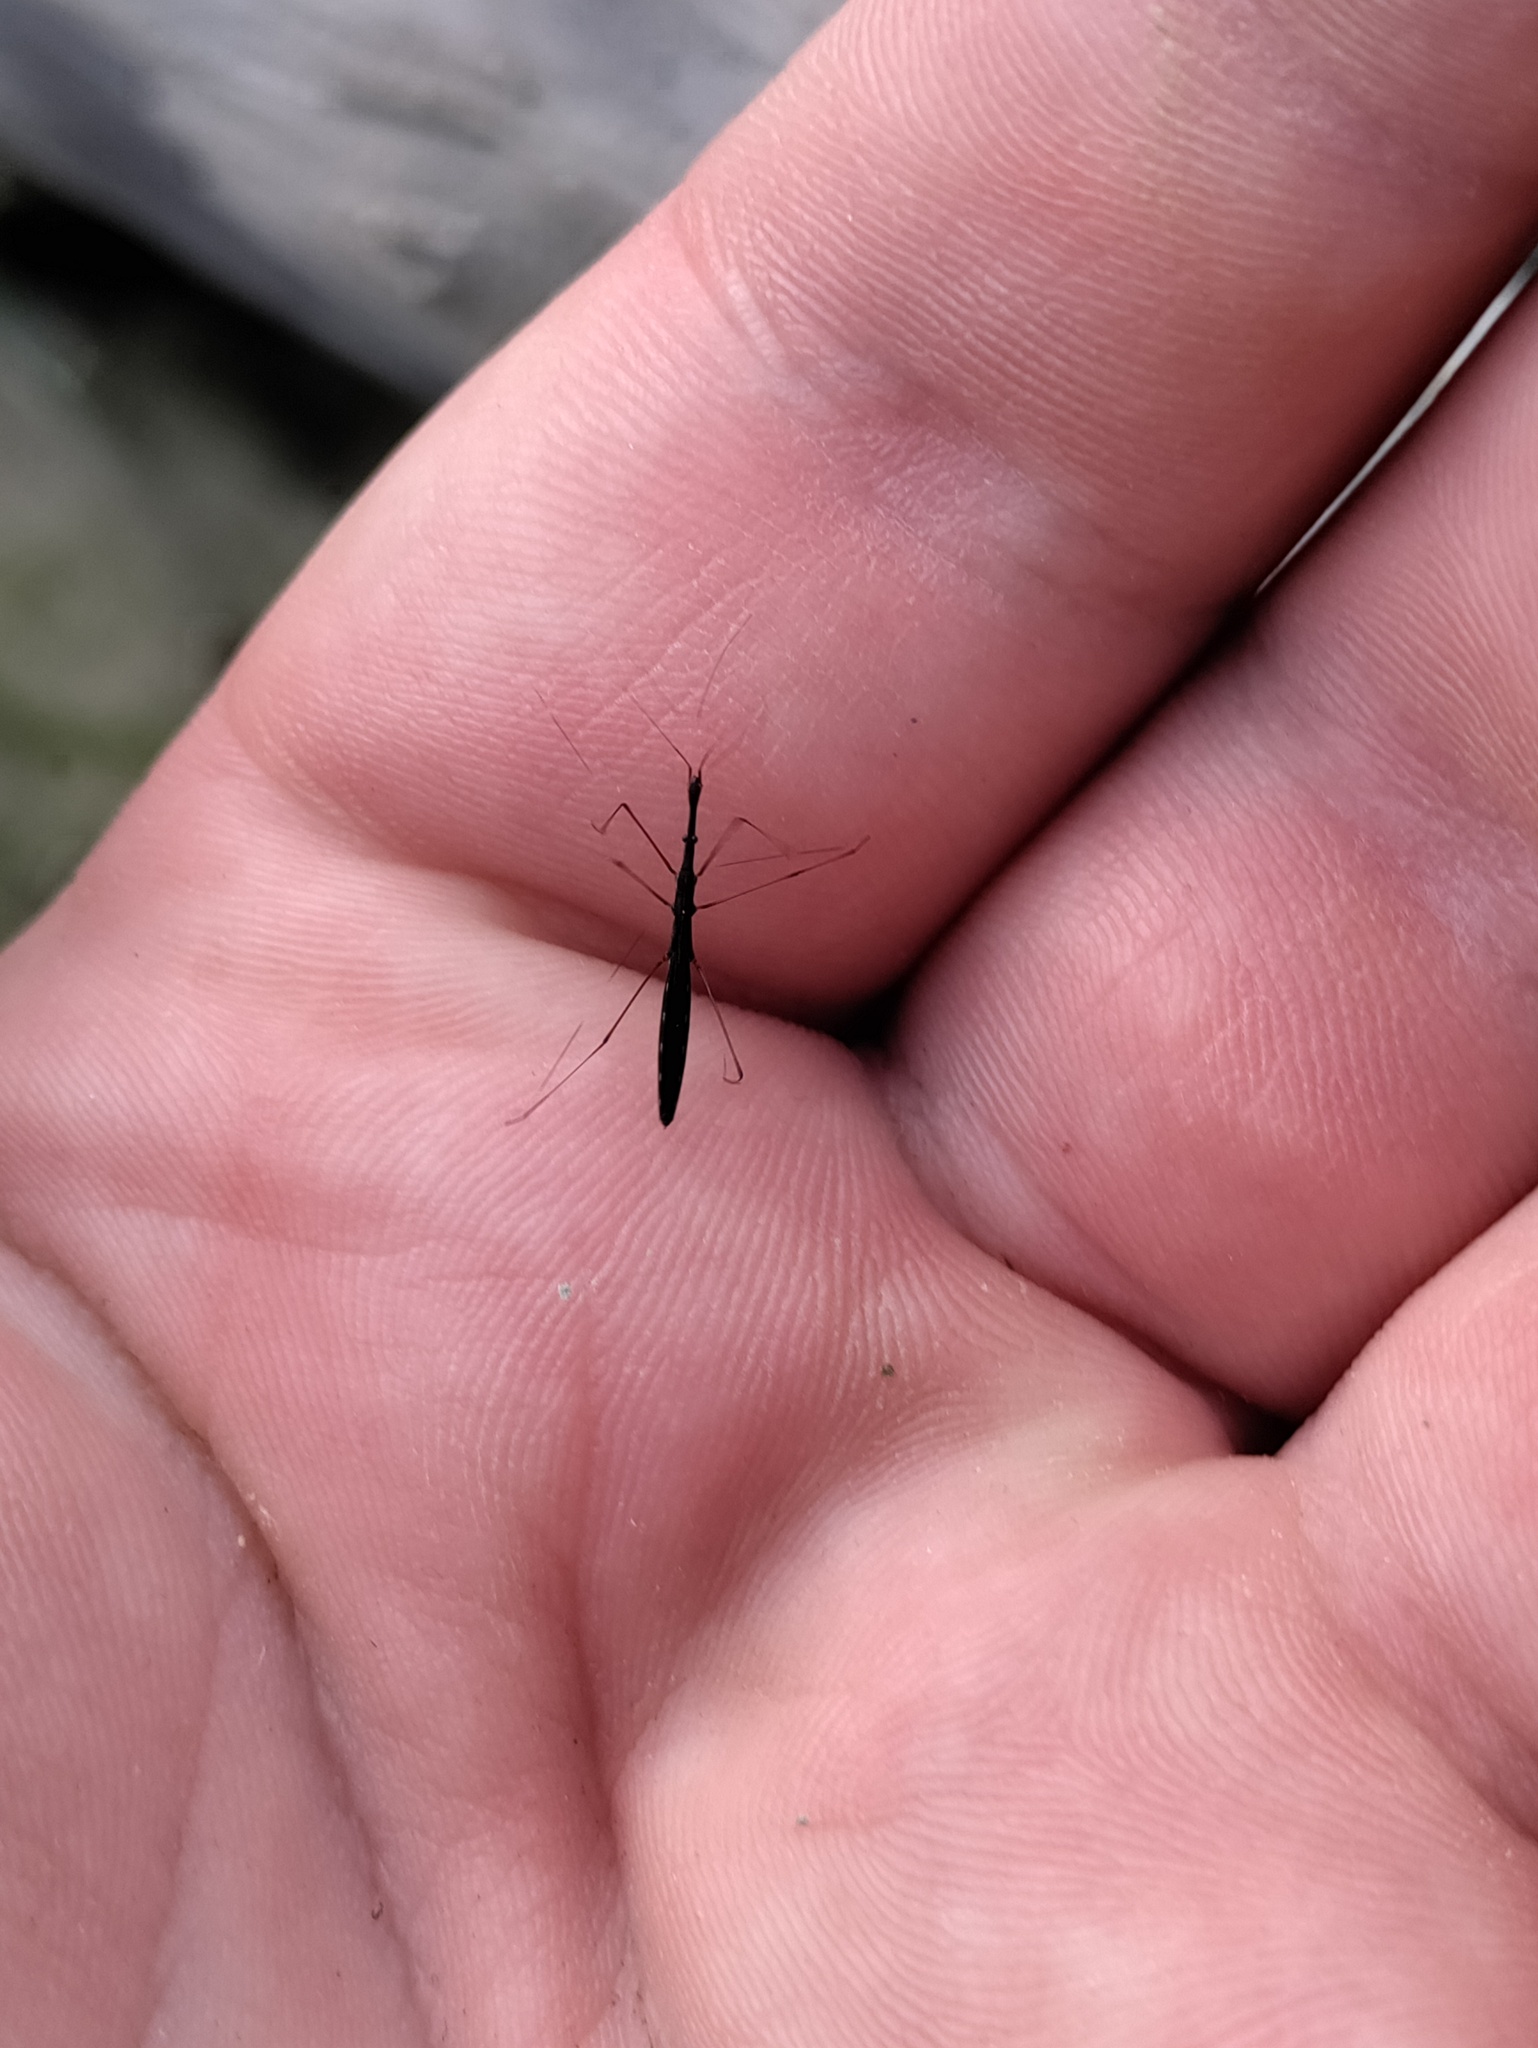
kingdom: Animalia
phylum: Arthropoda
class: Insecta
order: Hemiptera
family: Hydrometridae
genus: Hydrometra
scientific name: Hydrometra stagnorum
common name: Water measurer
